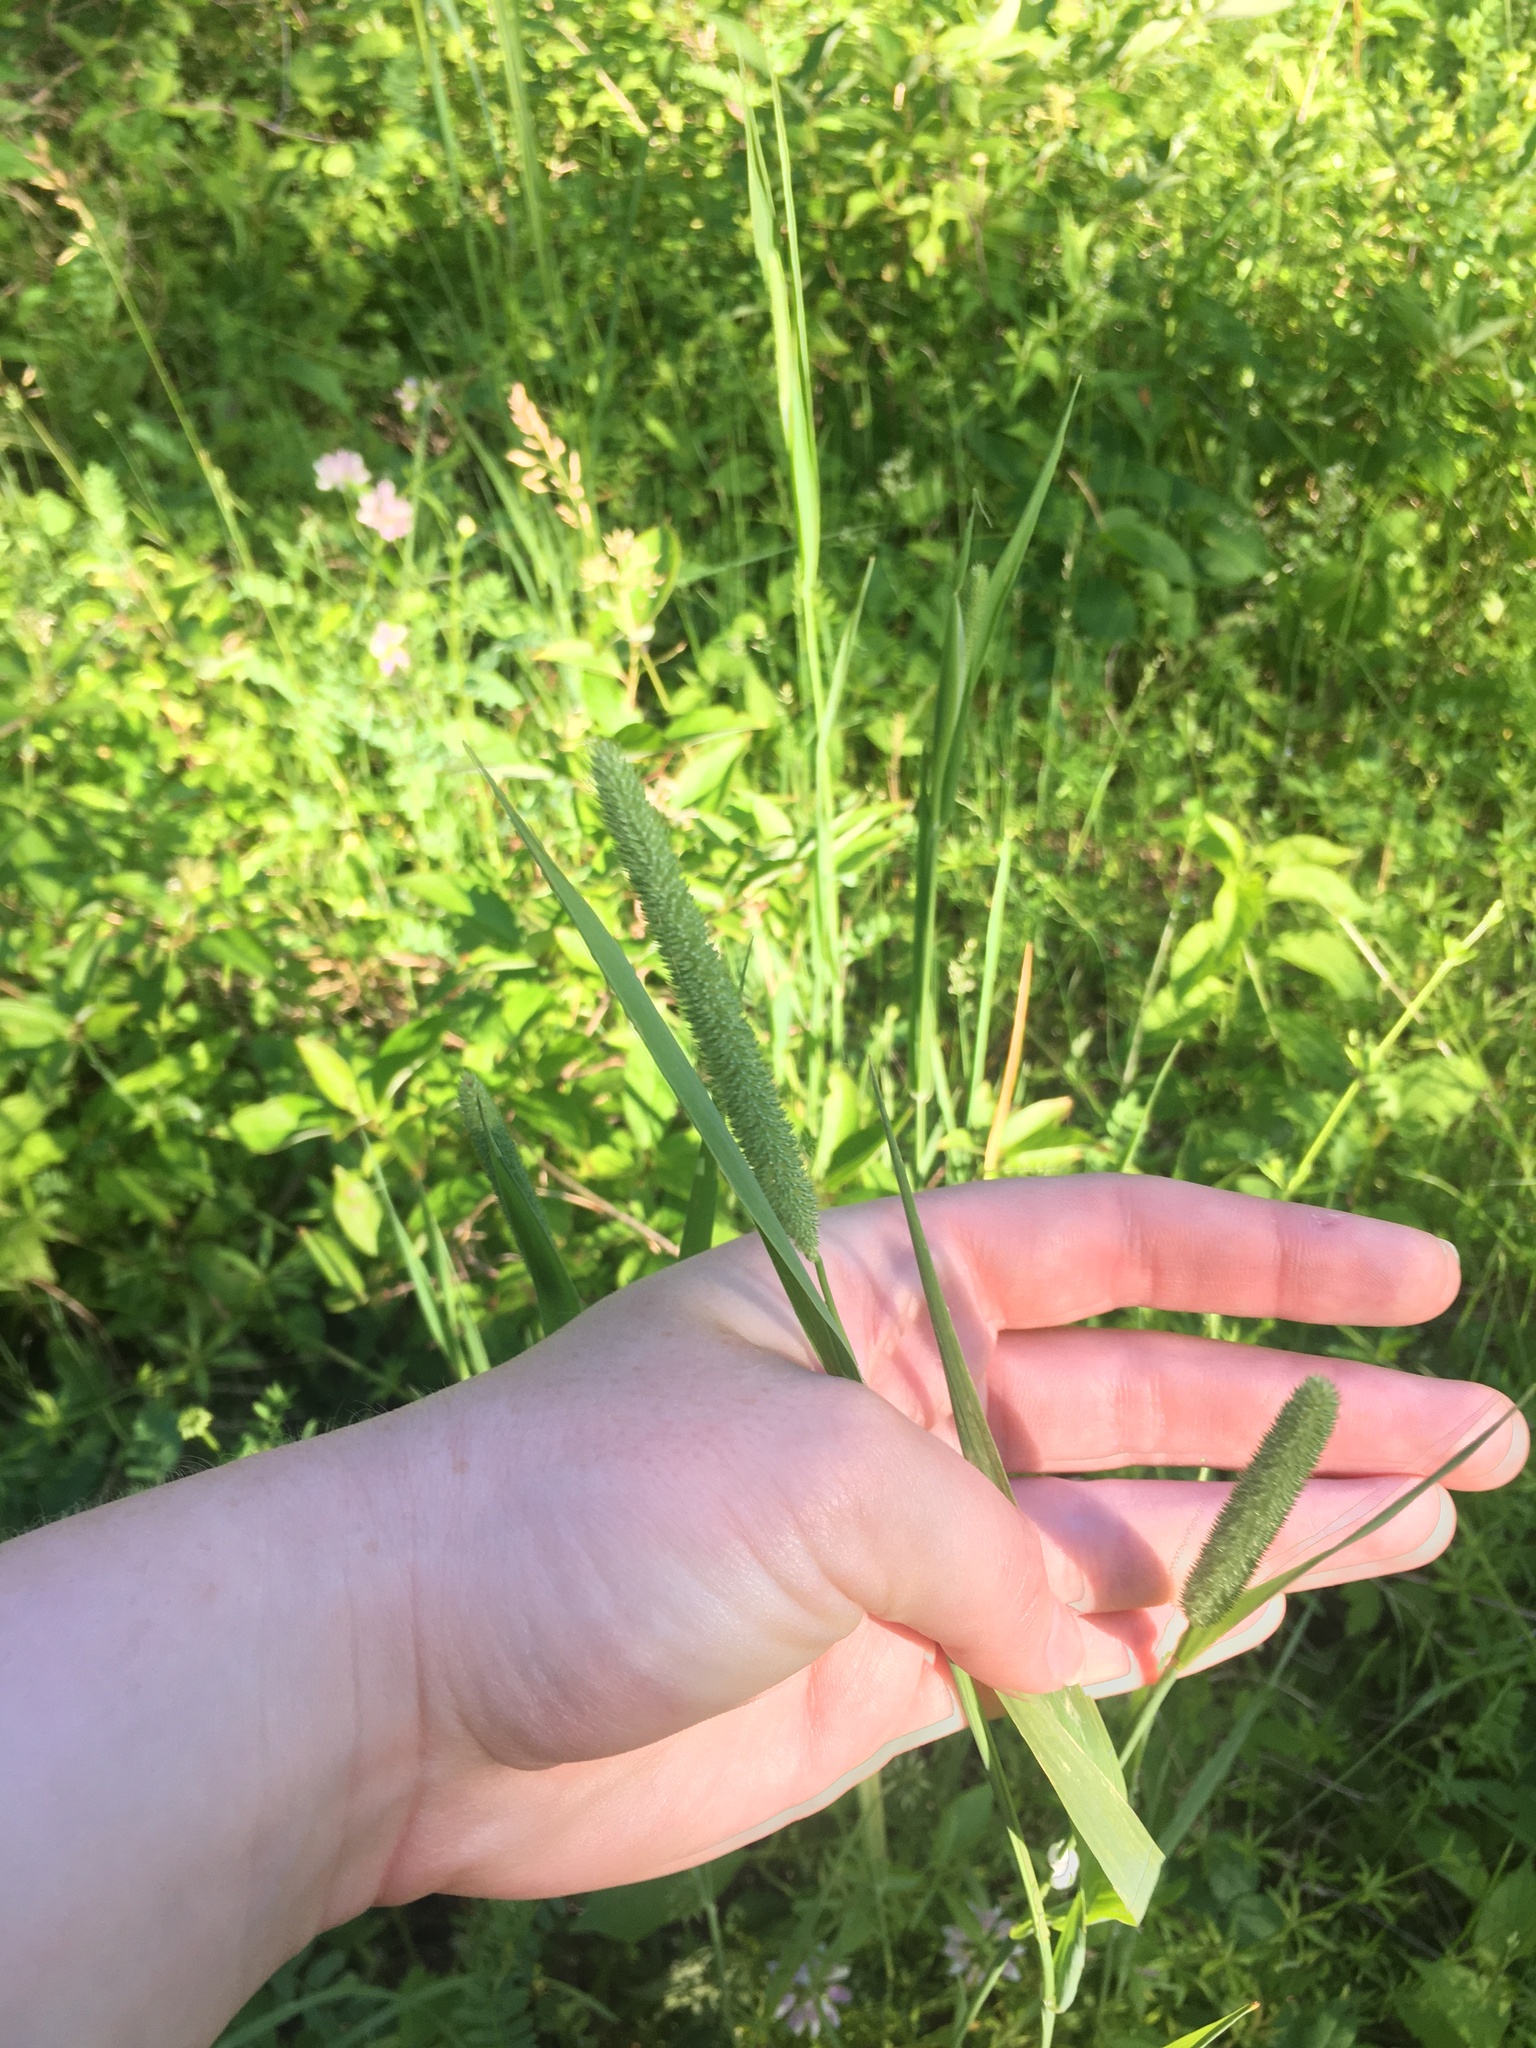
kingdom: Plantae
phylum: Tracheophyta
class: Liliopsida
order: Poales
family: Poaceae
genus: Phleum
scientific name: Phleum pratense
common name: Timothy grass
